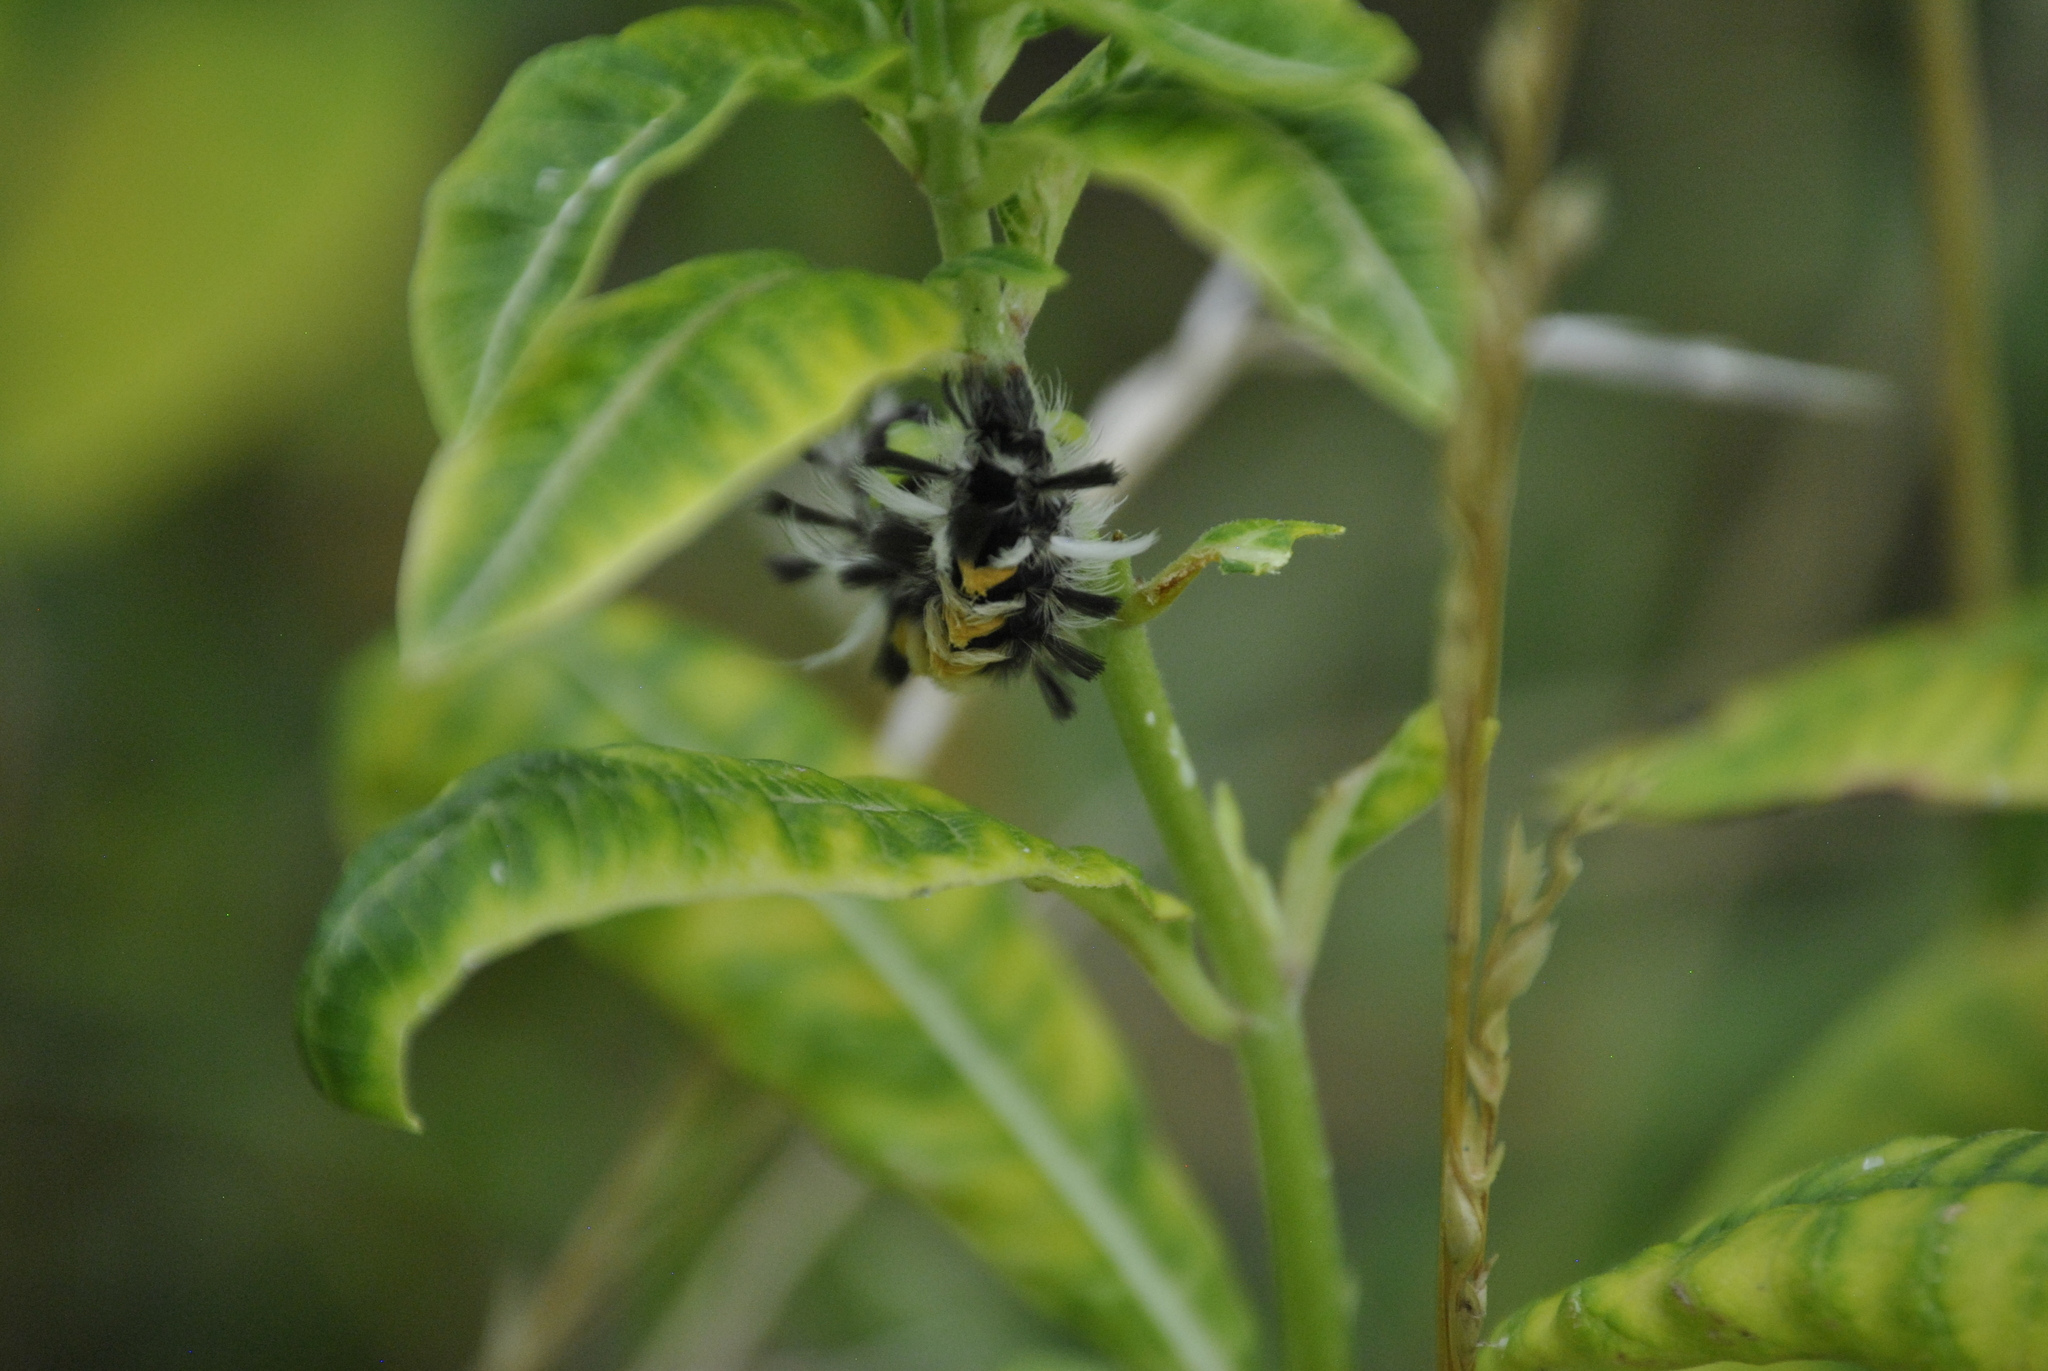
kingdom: Animalia
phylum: Arthropoda
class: Insecta
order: Lepidoptera
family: Erebidae
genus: Euchaetes
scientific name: Euchaetes egle
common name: Milkweed tussock moth
